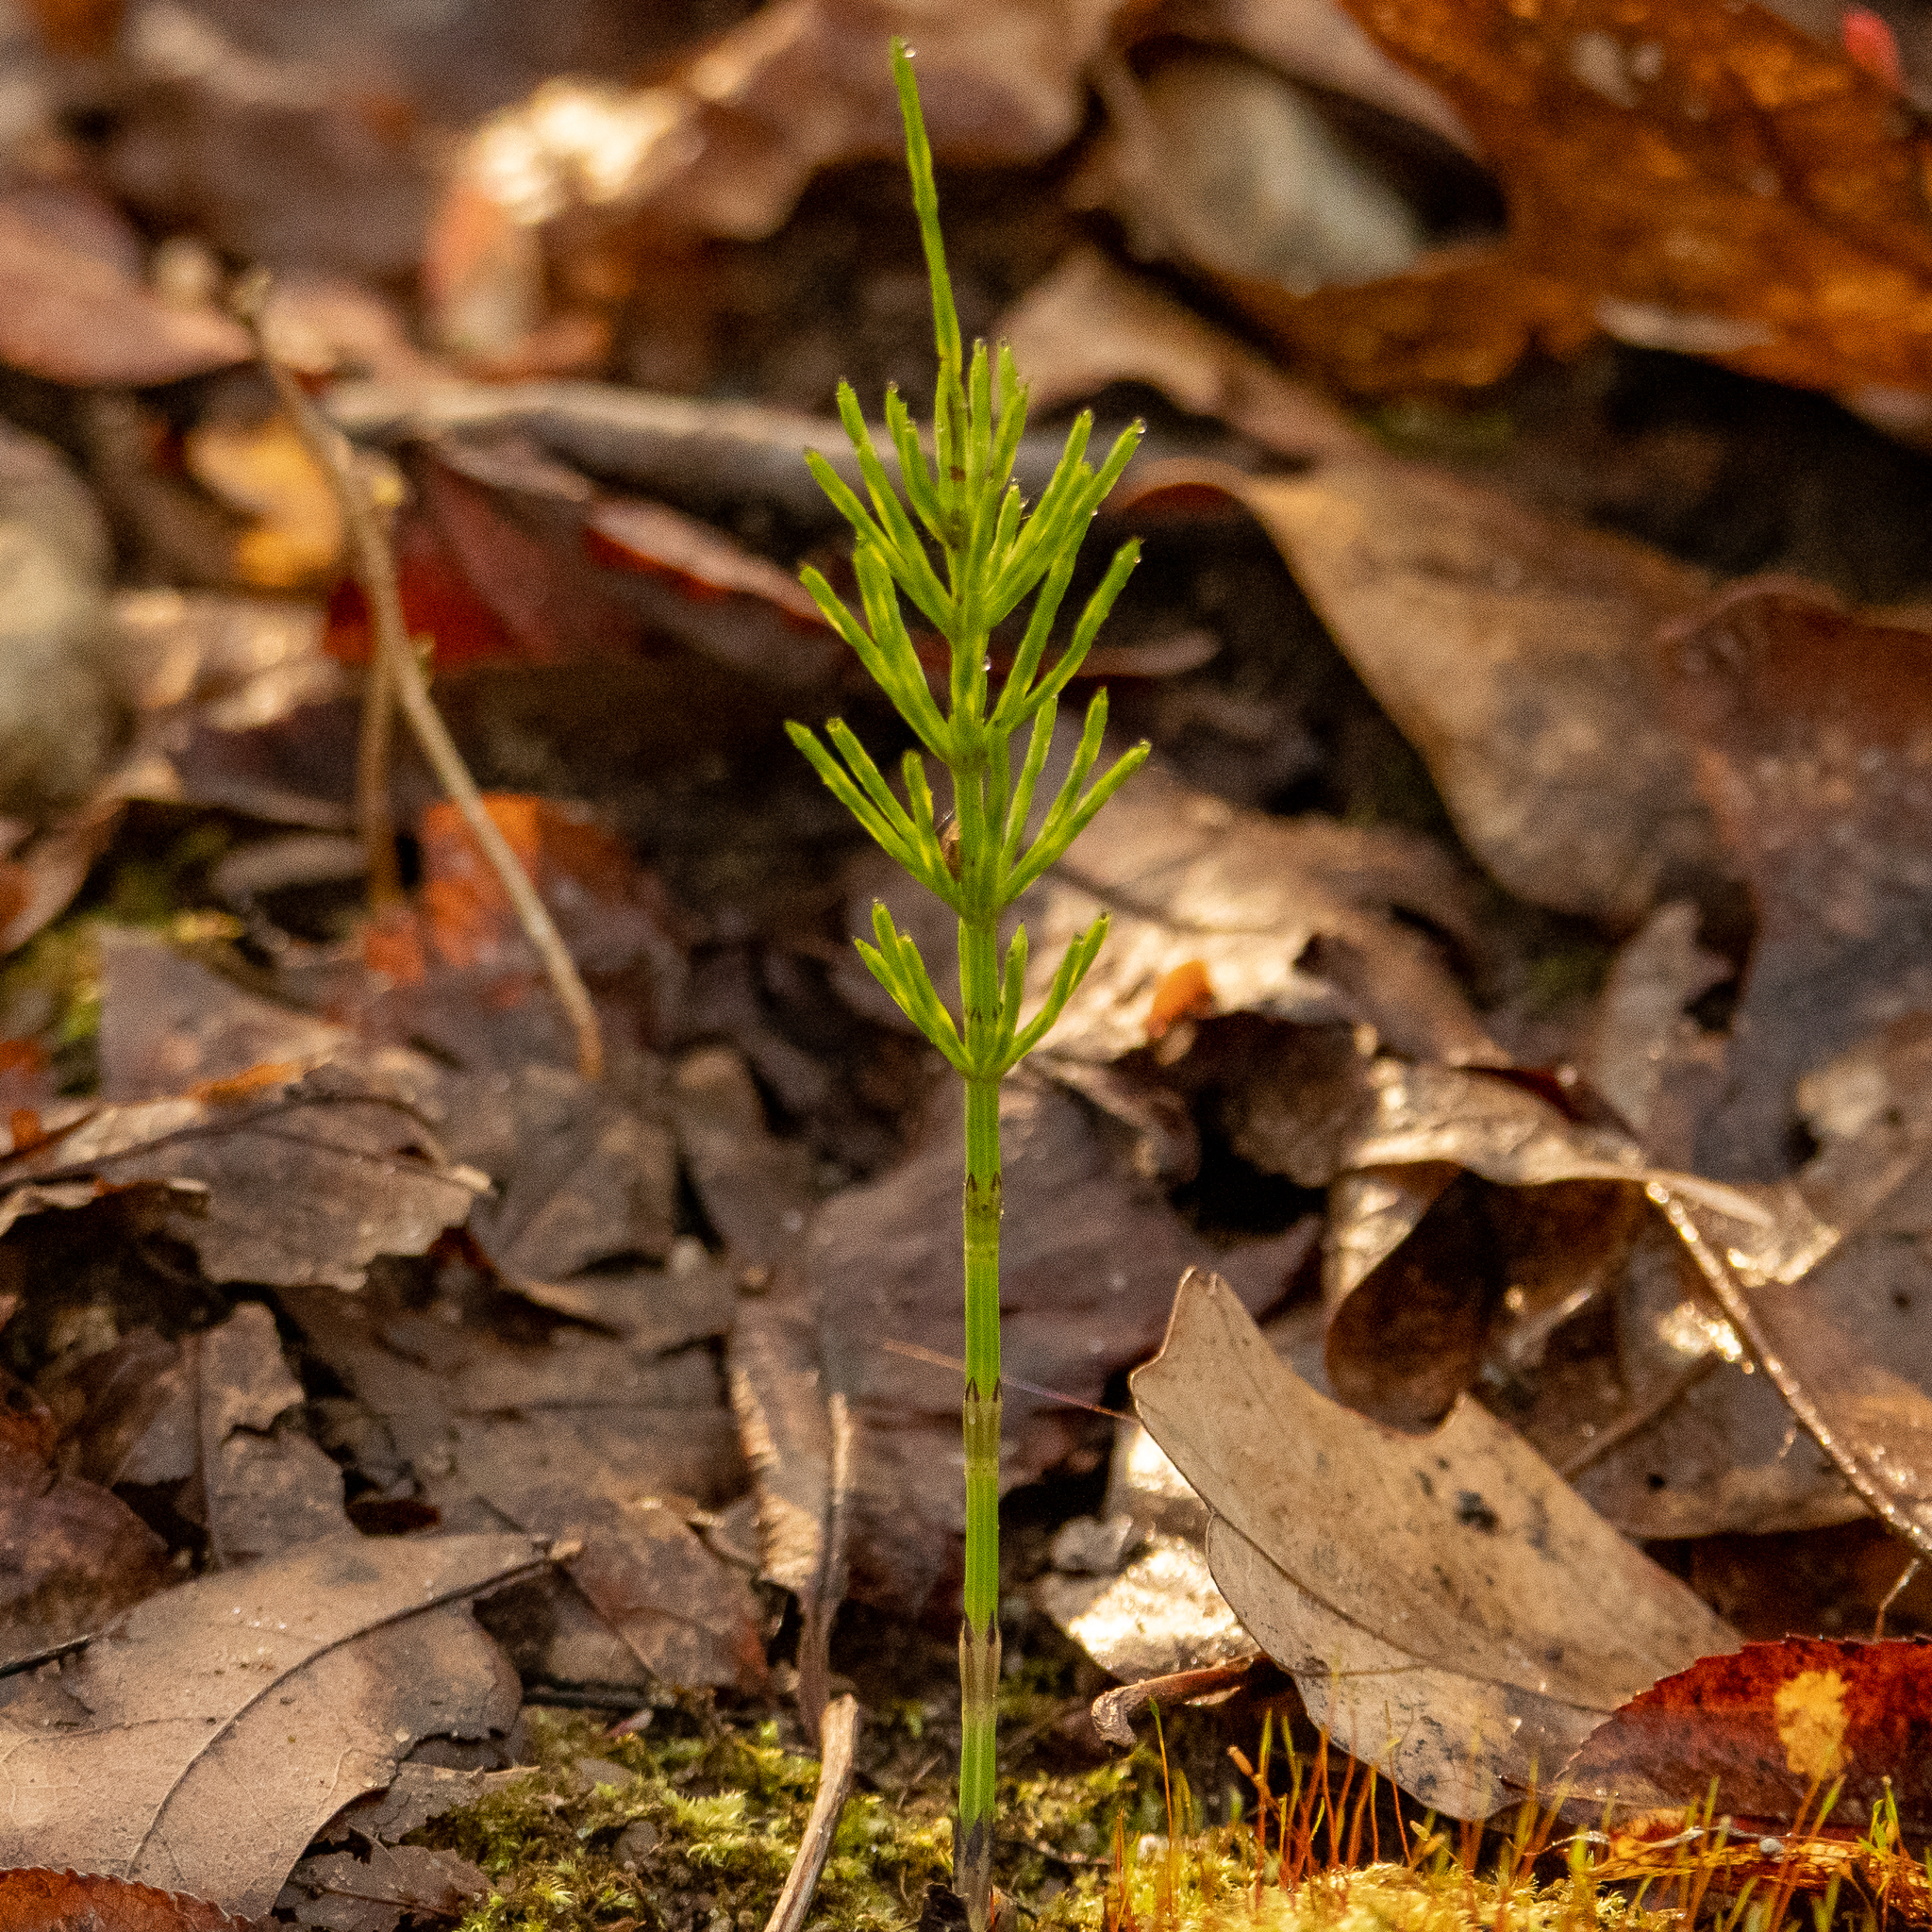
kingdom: Plantae
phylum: Tracheophyta
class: Polypodiopsida
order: Equisetales
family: Equisetaceae
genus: Equisetum
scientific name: Equisetum arvense
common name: Field horsetail
